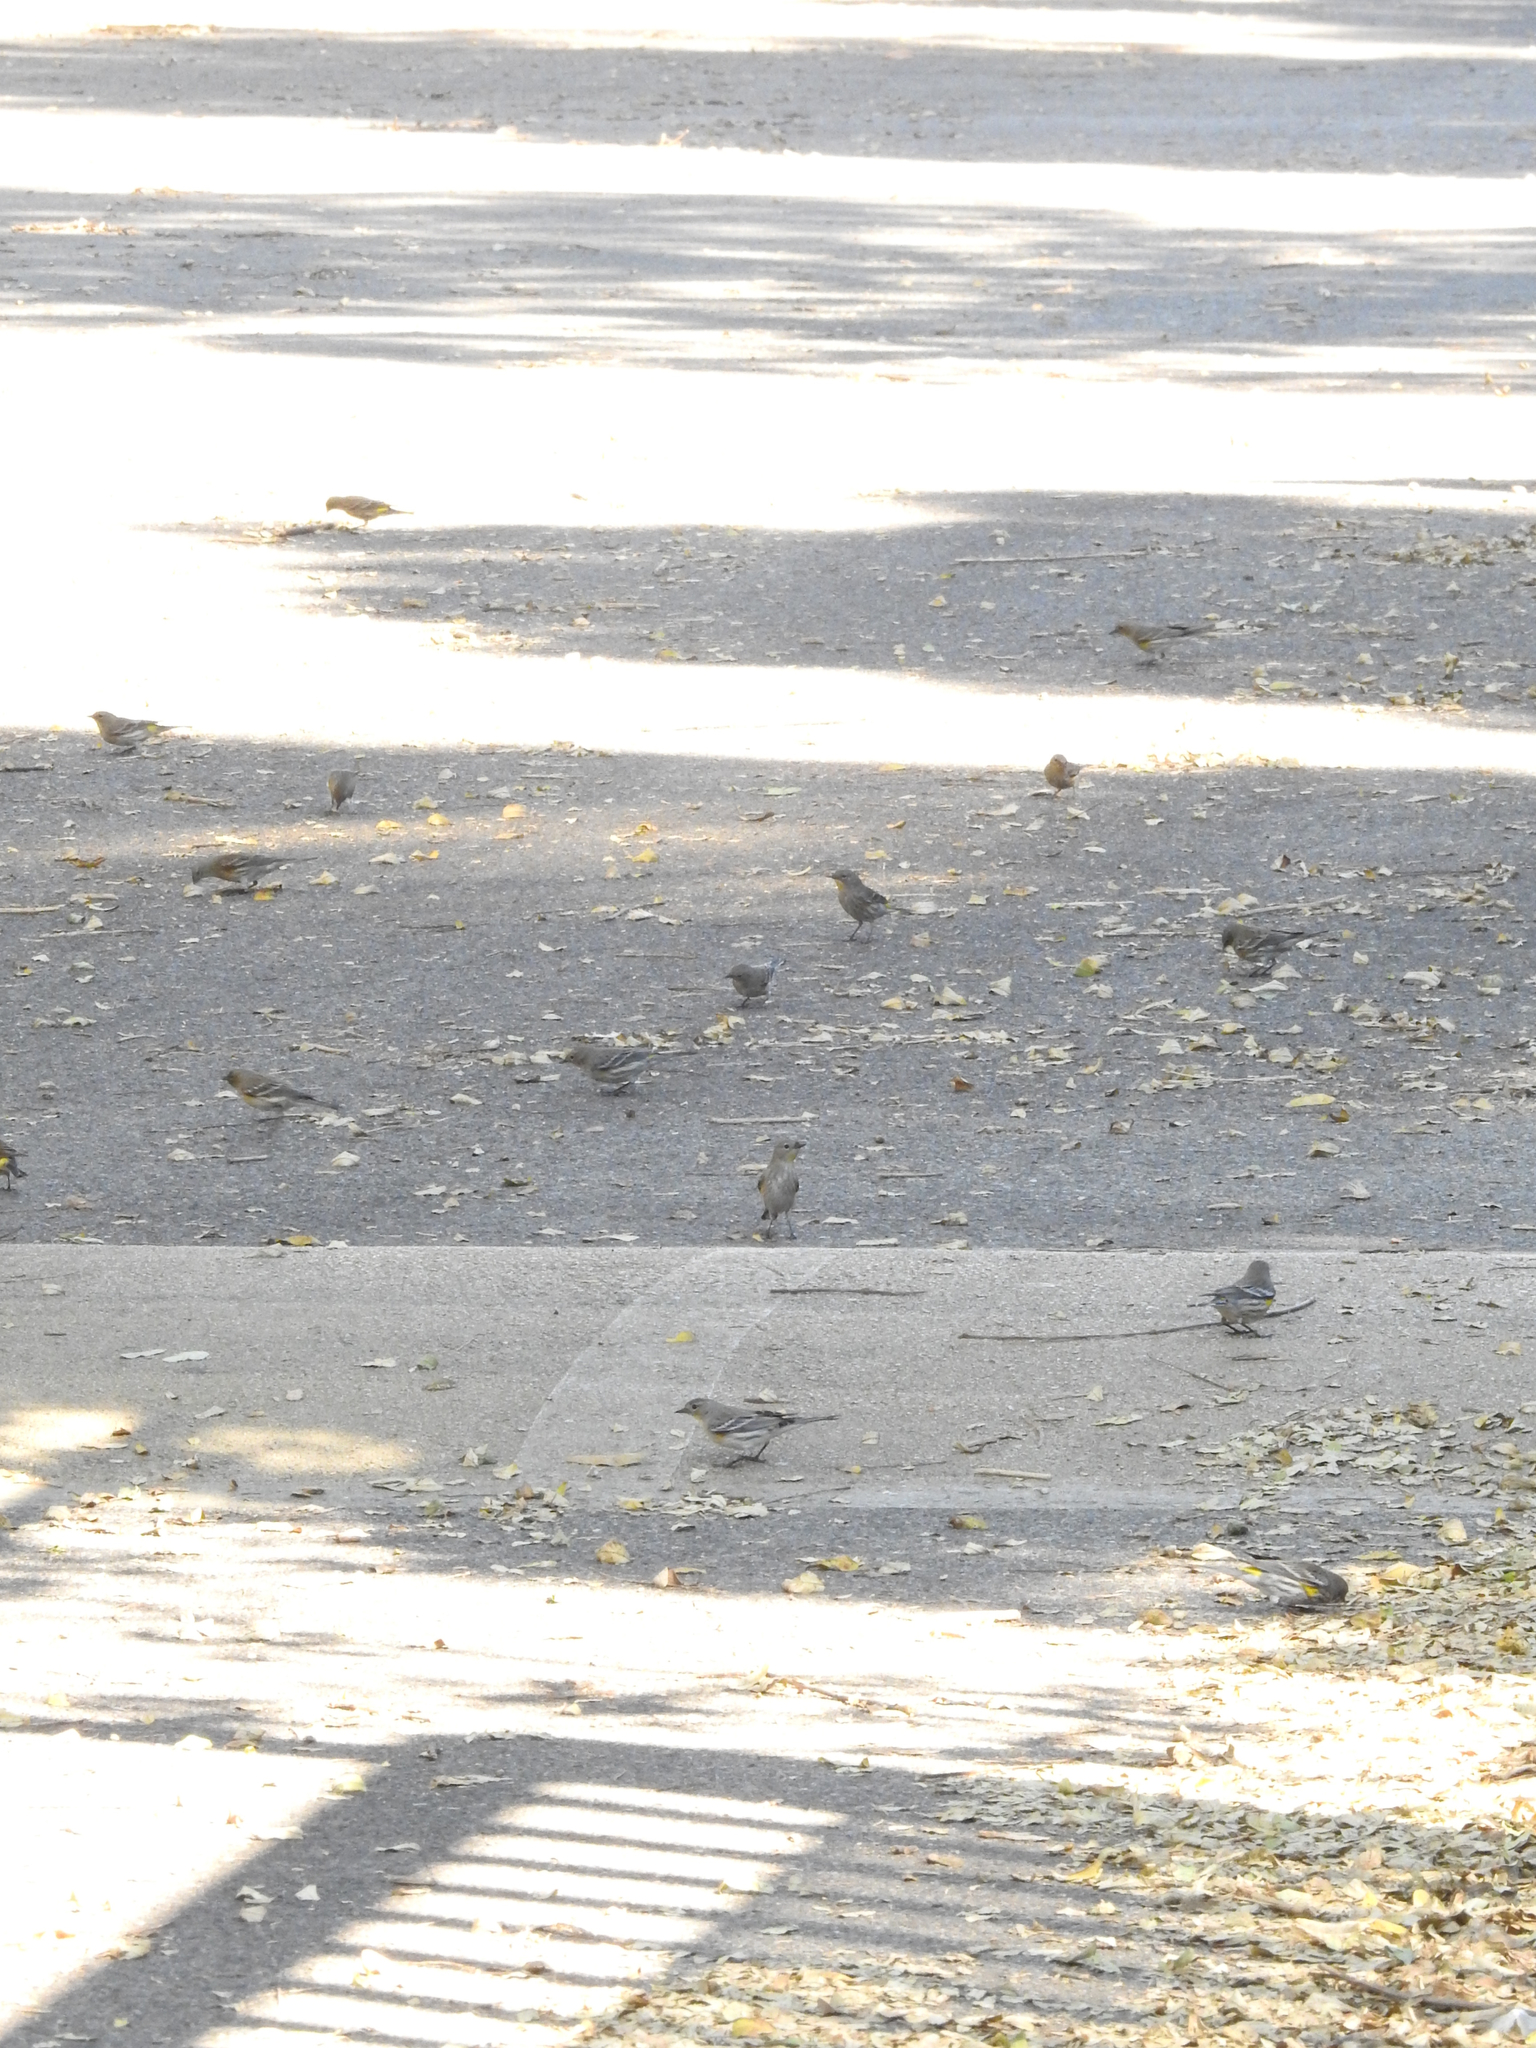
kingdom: Animalia
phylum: Chordata
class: Aves
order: Passeriformes
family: Parulidae
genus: Setophaga
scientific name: Setophaga auduboni
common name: Audubon's warbler
